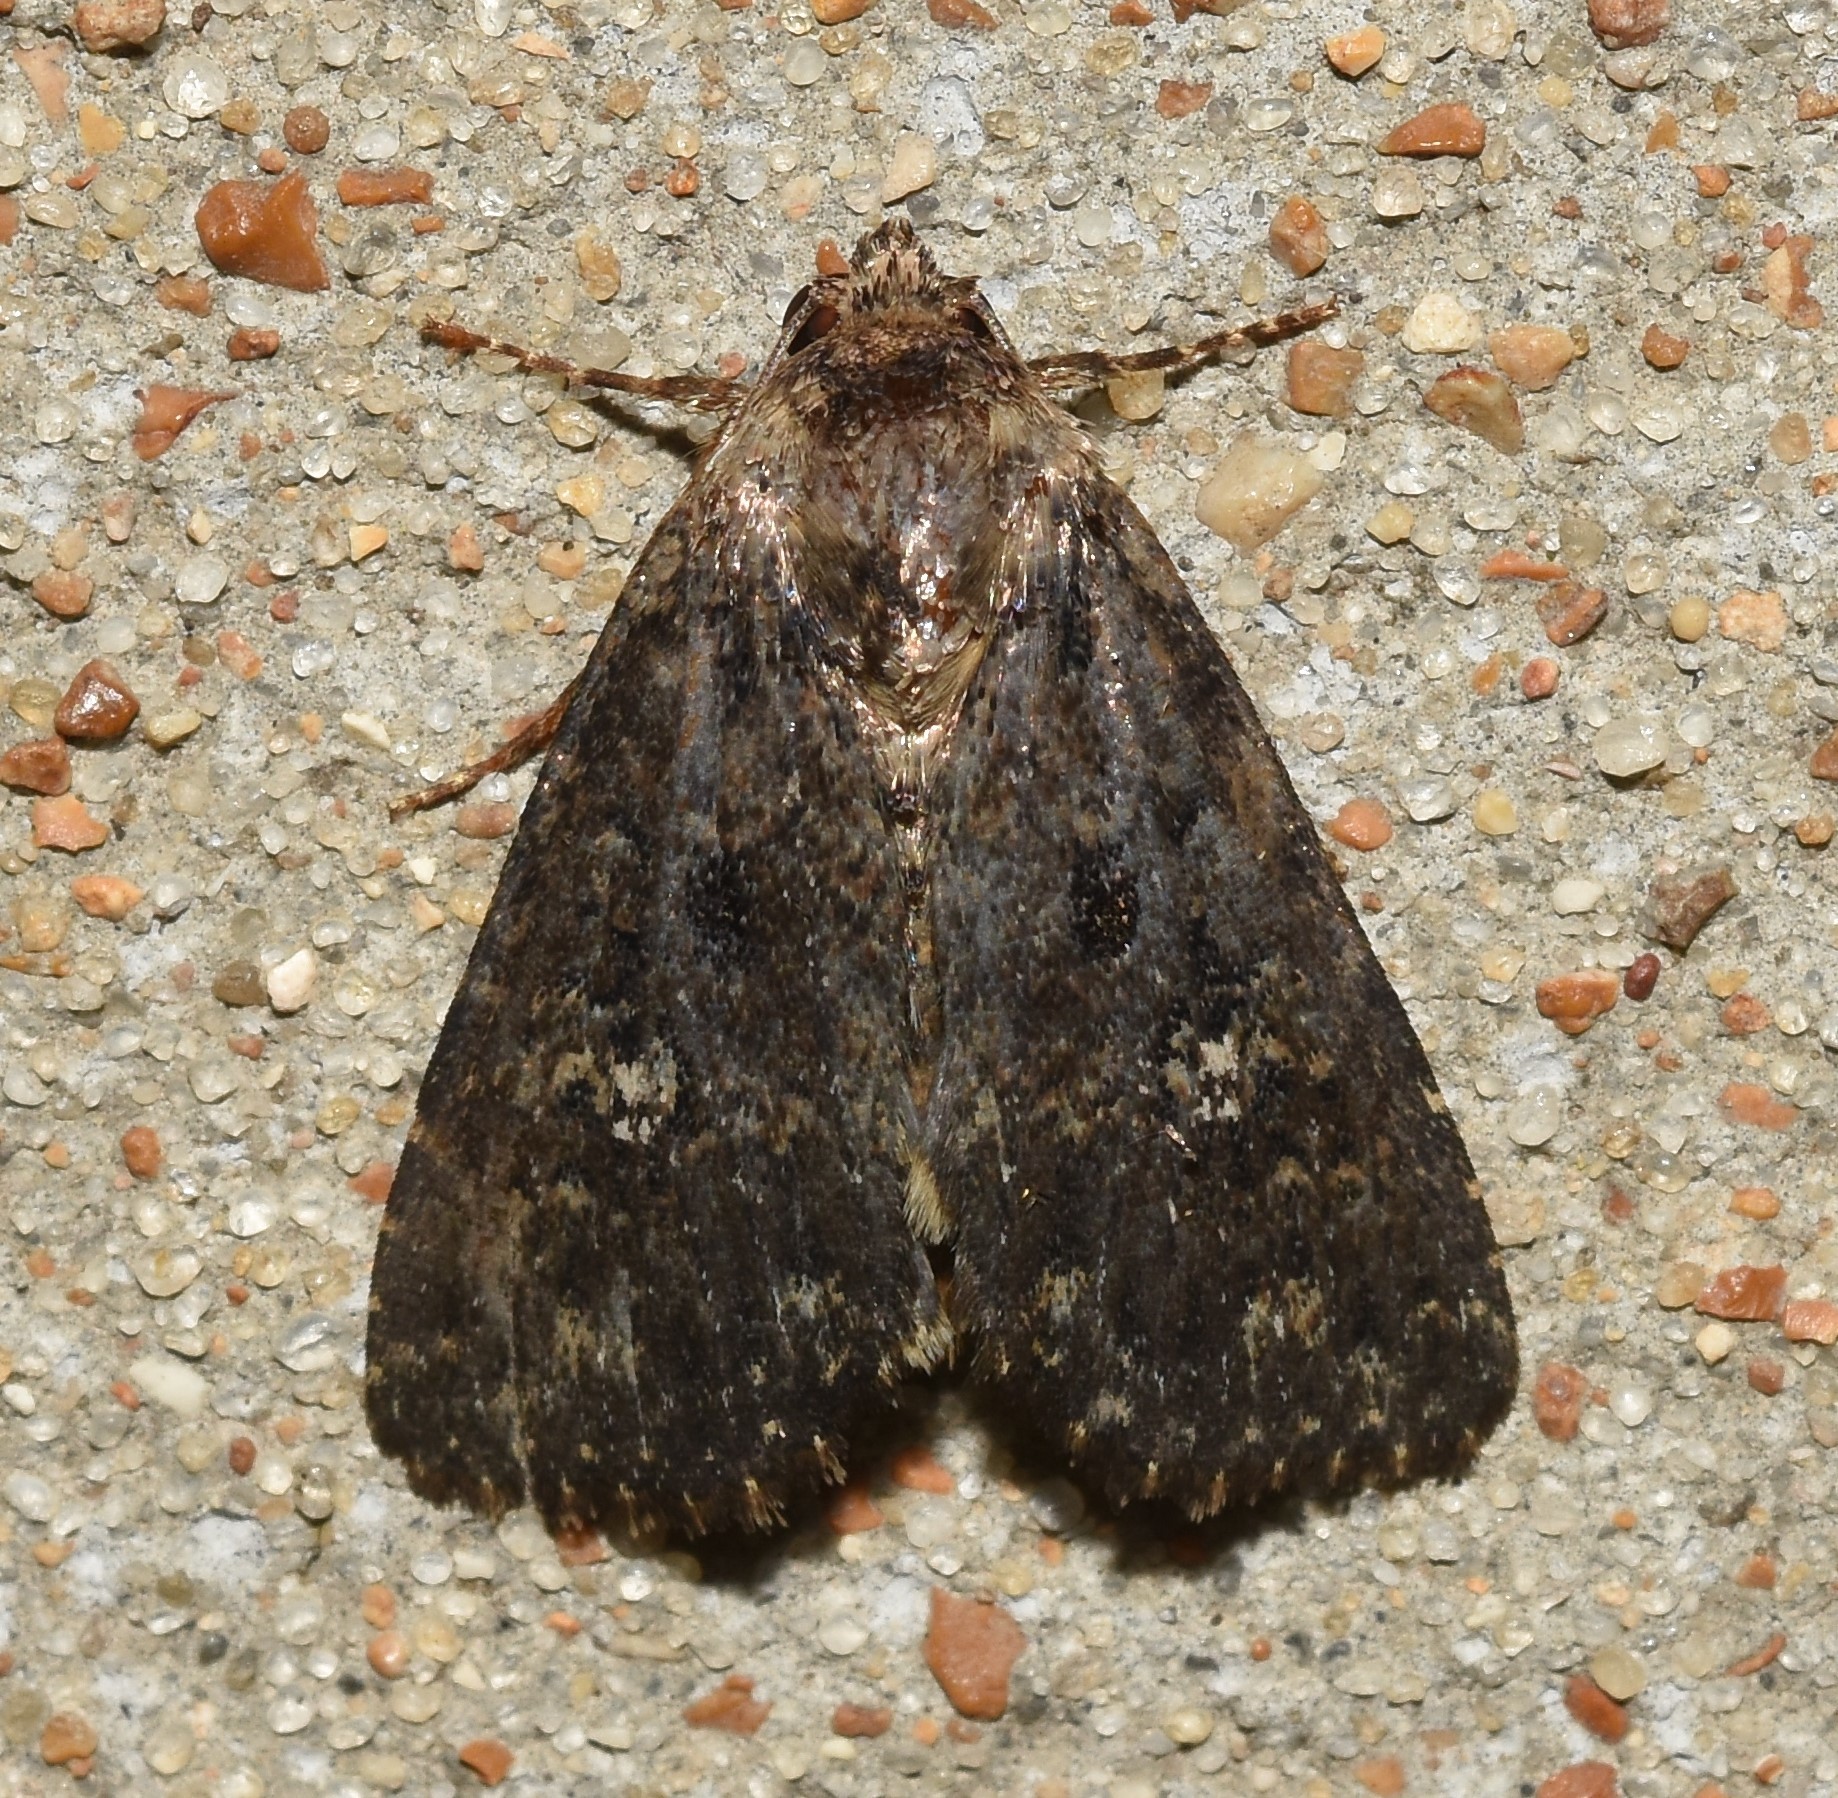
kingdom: Animalia
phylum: Arthropoda
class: Insecta
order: Lepidoptera
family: Noctuidae
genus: Condica
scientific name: Condica vecors
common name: Dusky groundling
